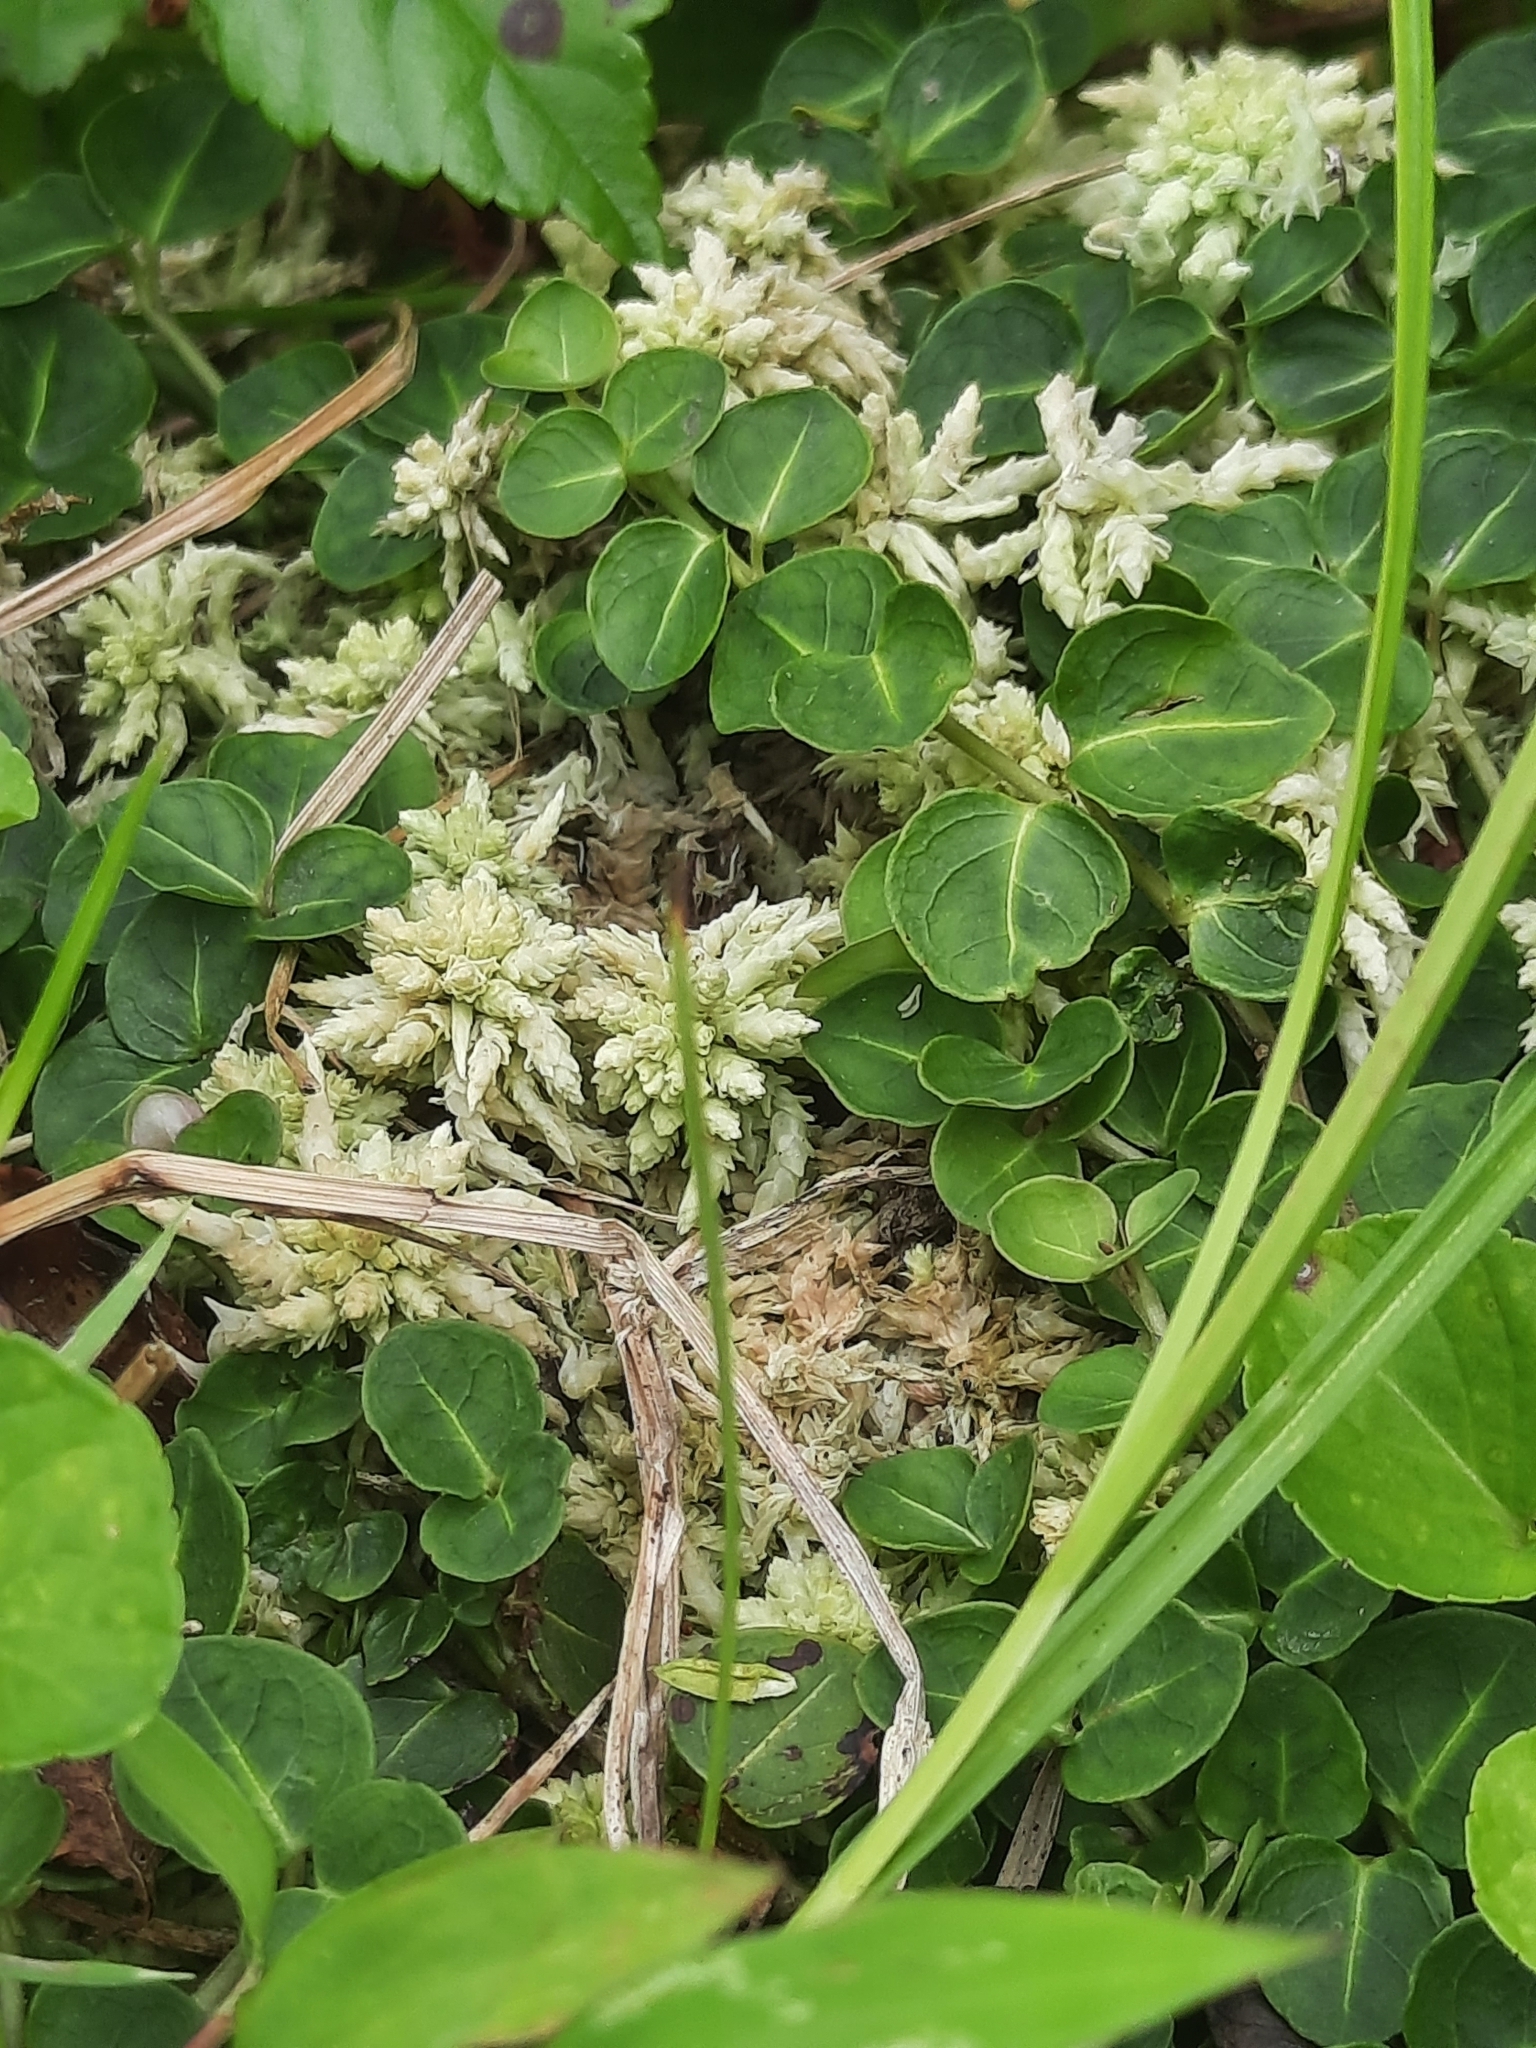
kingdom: Plantae
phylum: Tracheophyta
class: Magnoliopsida
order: Gentianales
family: Rubiaceae
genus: Mitchella
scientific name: Mitchella repens
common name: Partridge-berry
